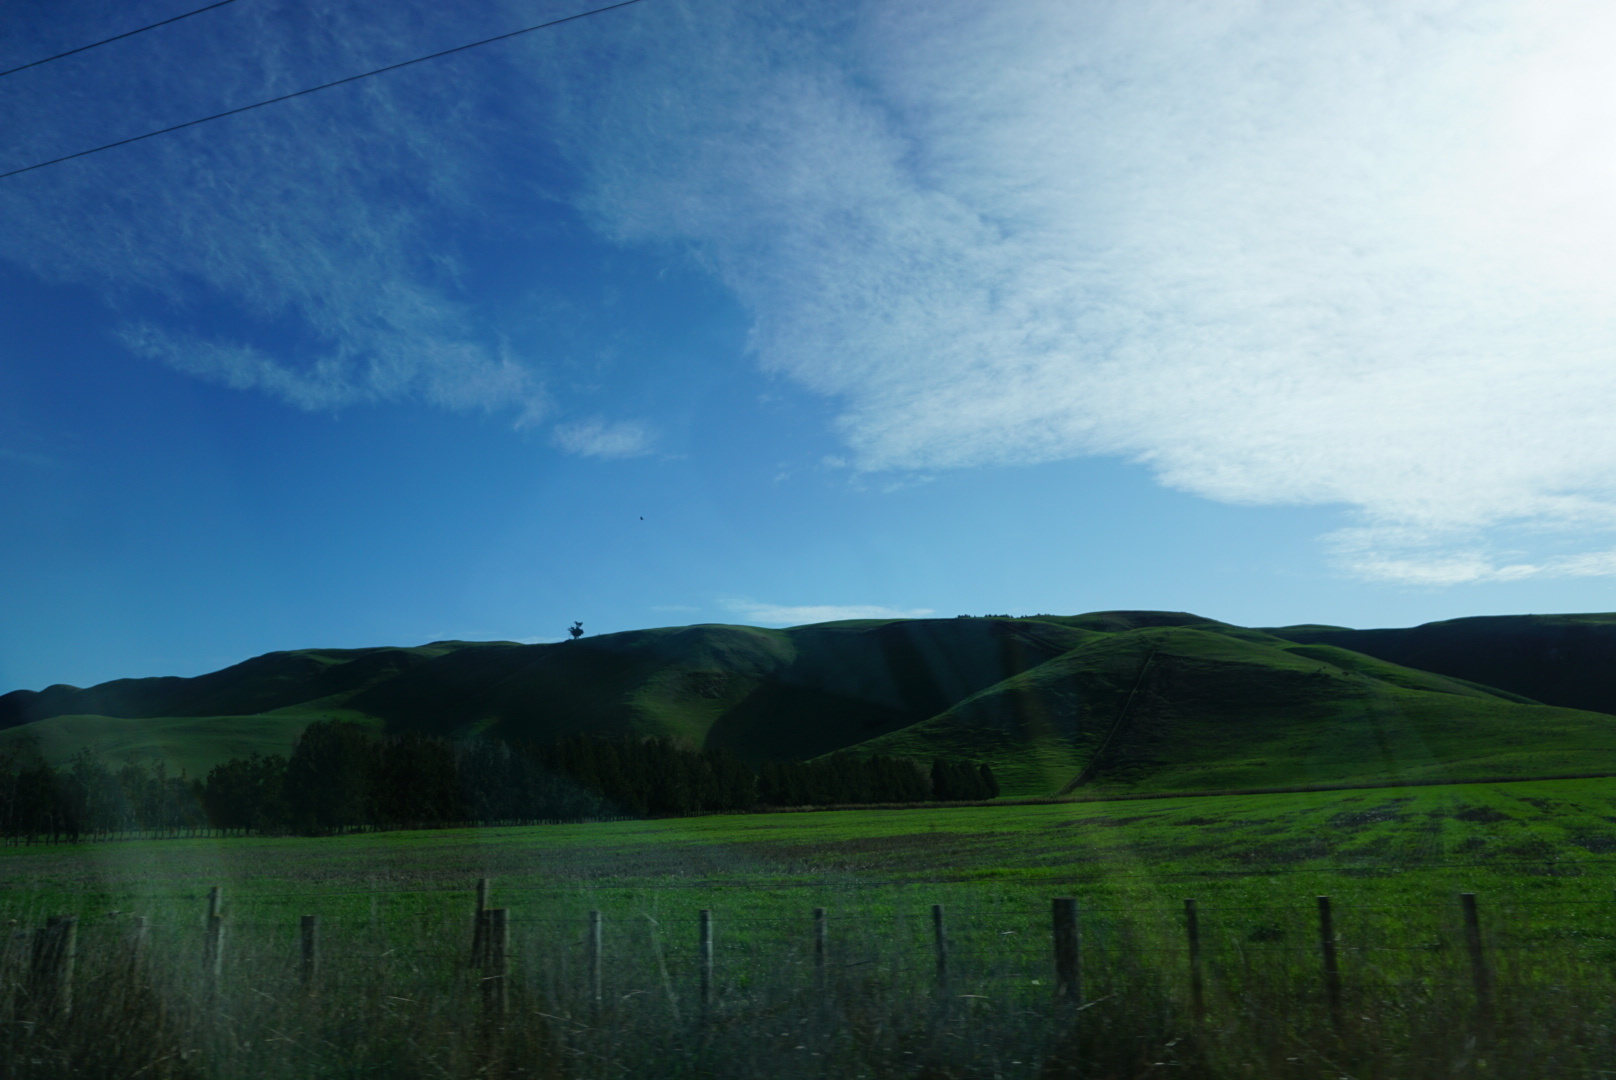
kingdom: Animalia
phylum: Chordata
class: Aves
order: Accipitriformes
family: Accipitridae
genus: Circus
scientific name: Circus approximans
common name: Swamp harrier
